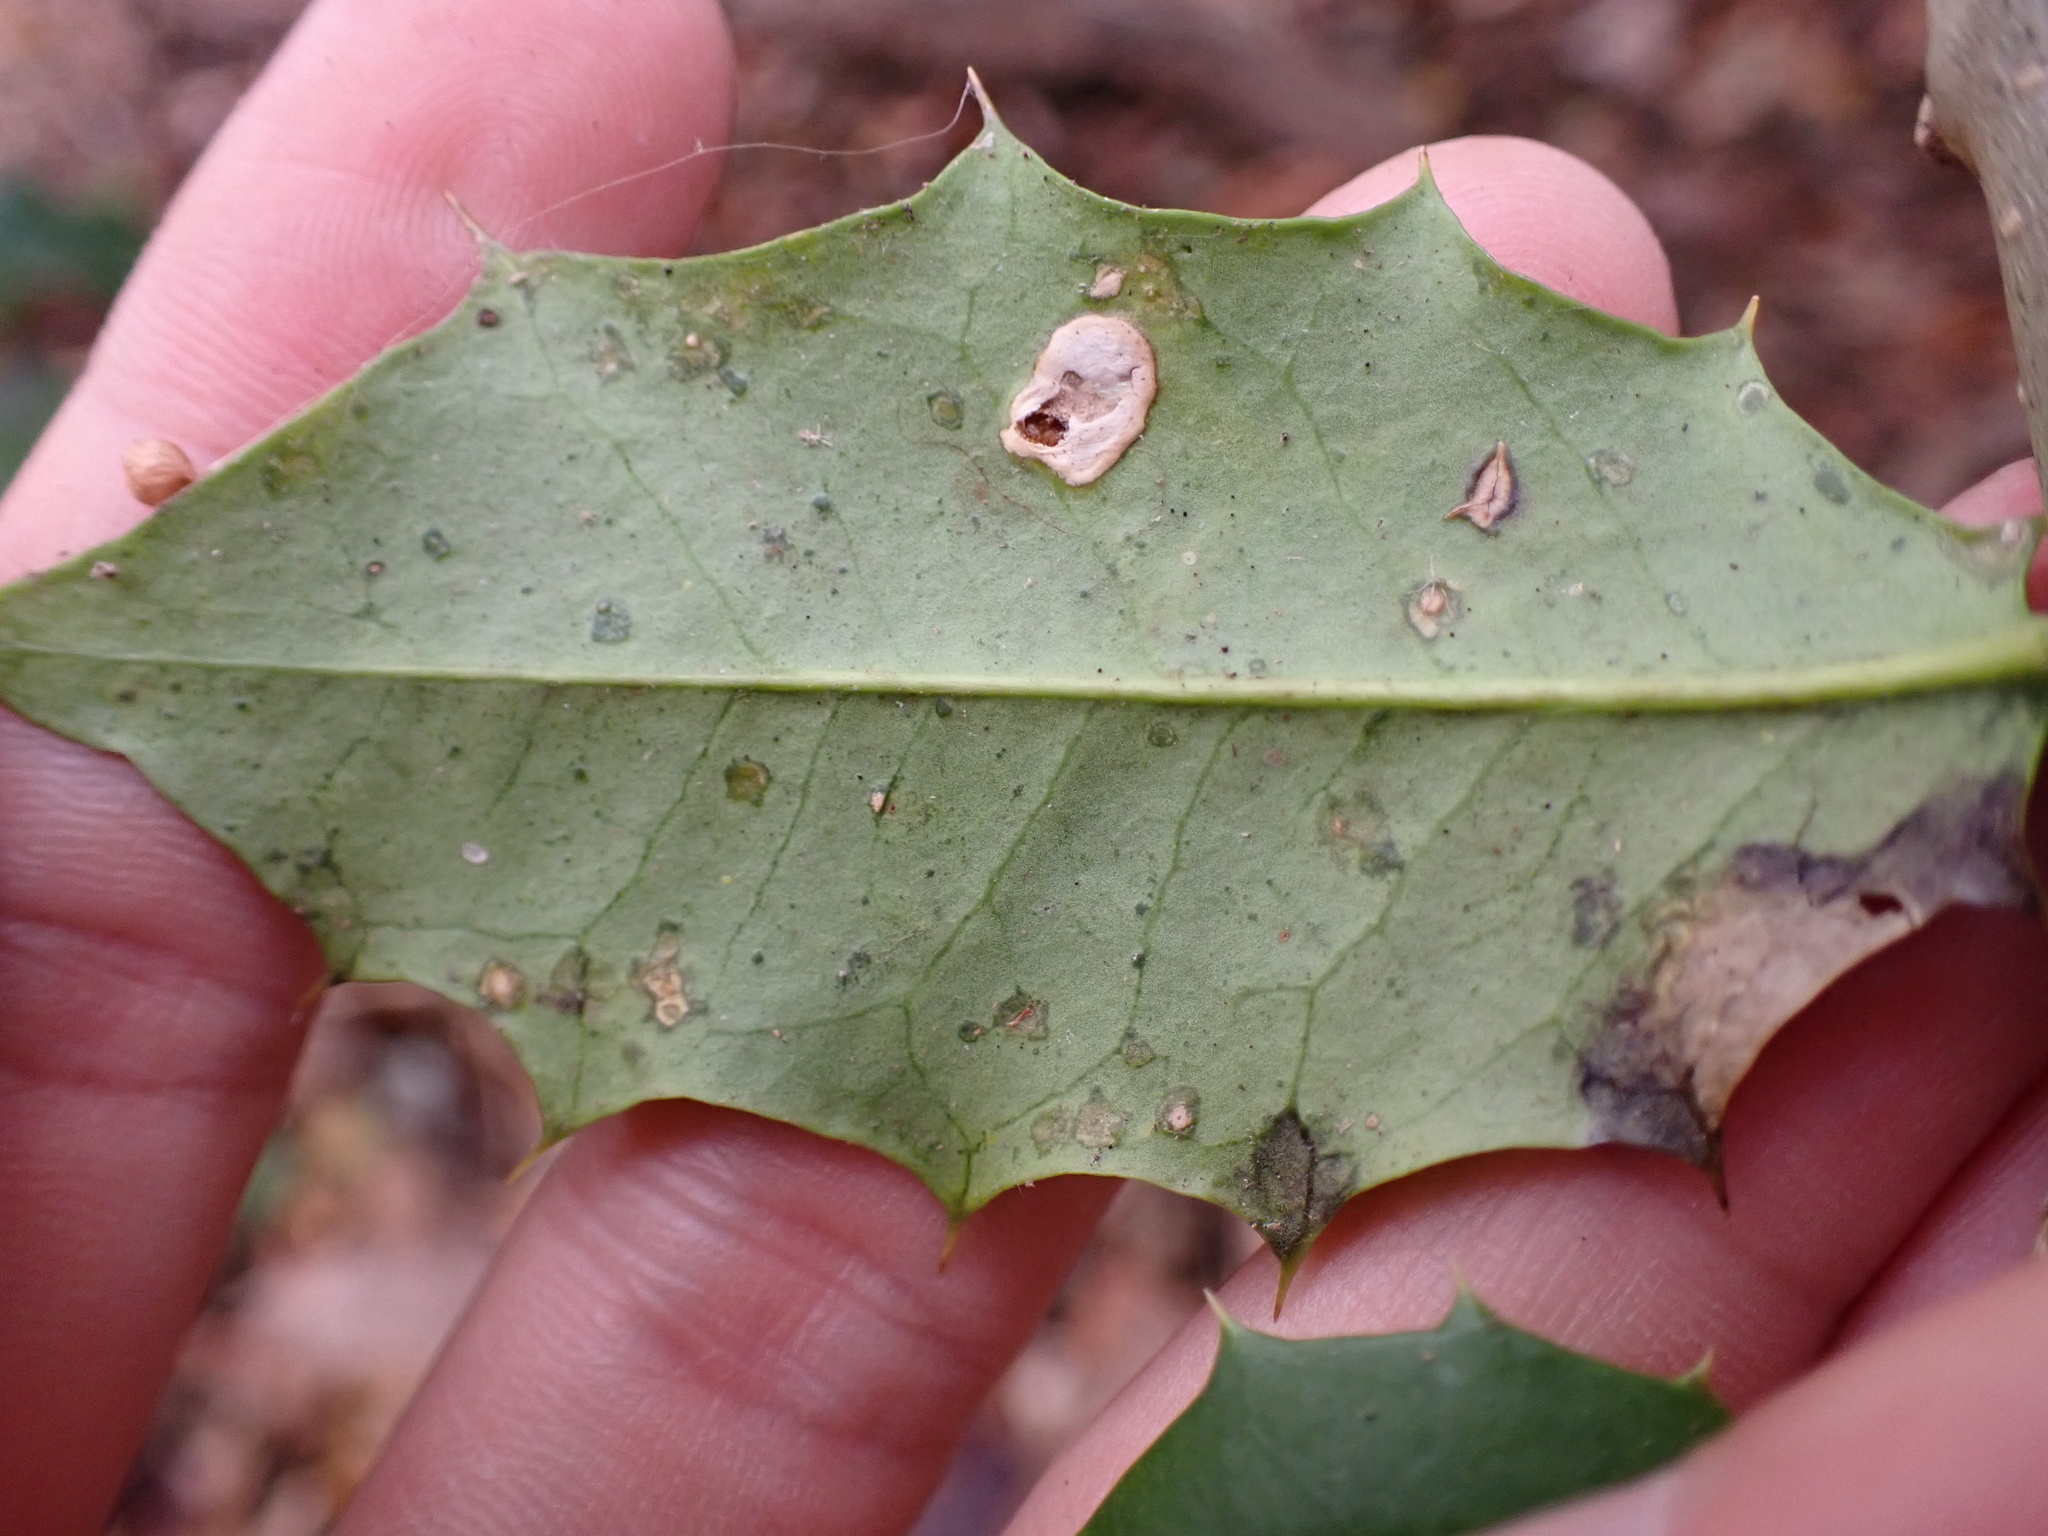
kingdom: Animalia
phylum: Arthropoda
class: Insecta
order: Diptera
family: Agromyzidae
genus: Phytomyza
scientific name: Phytomyza opacae
